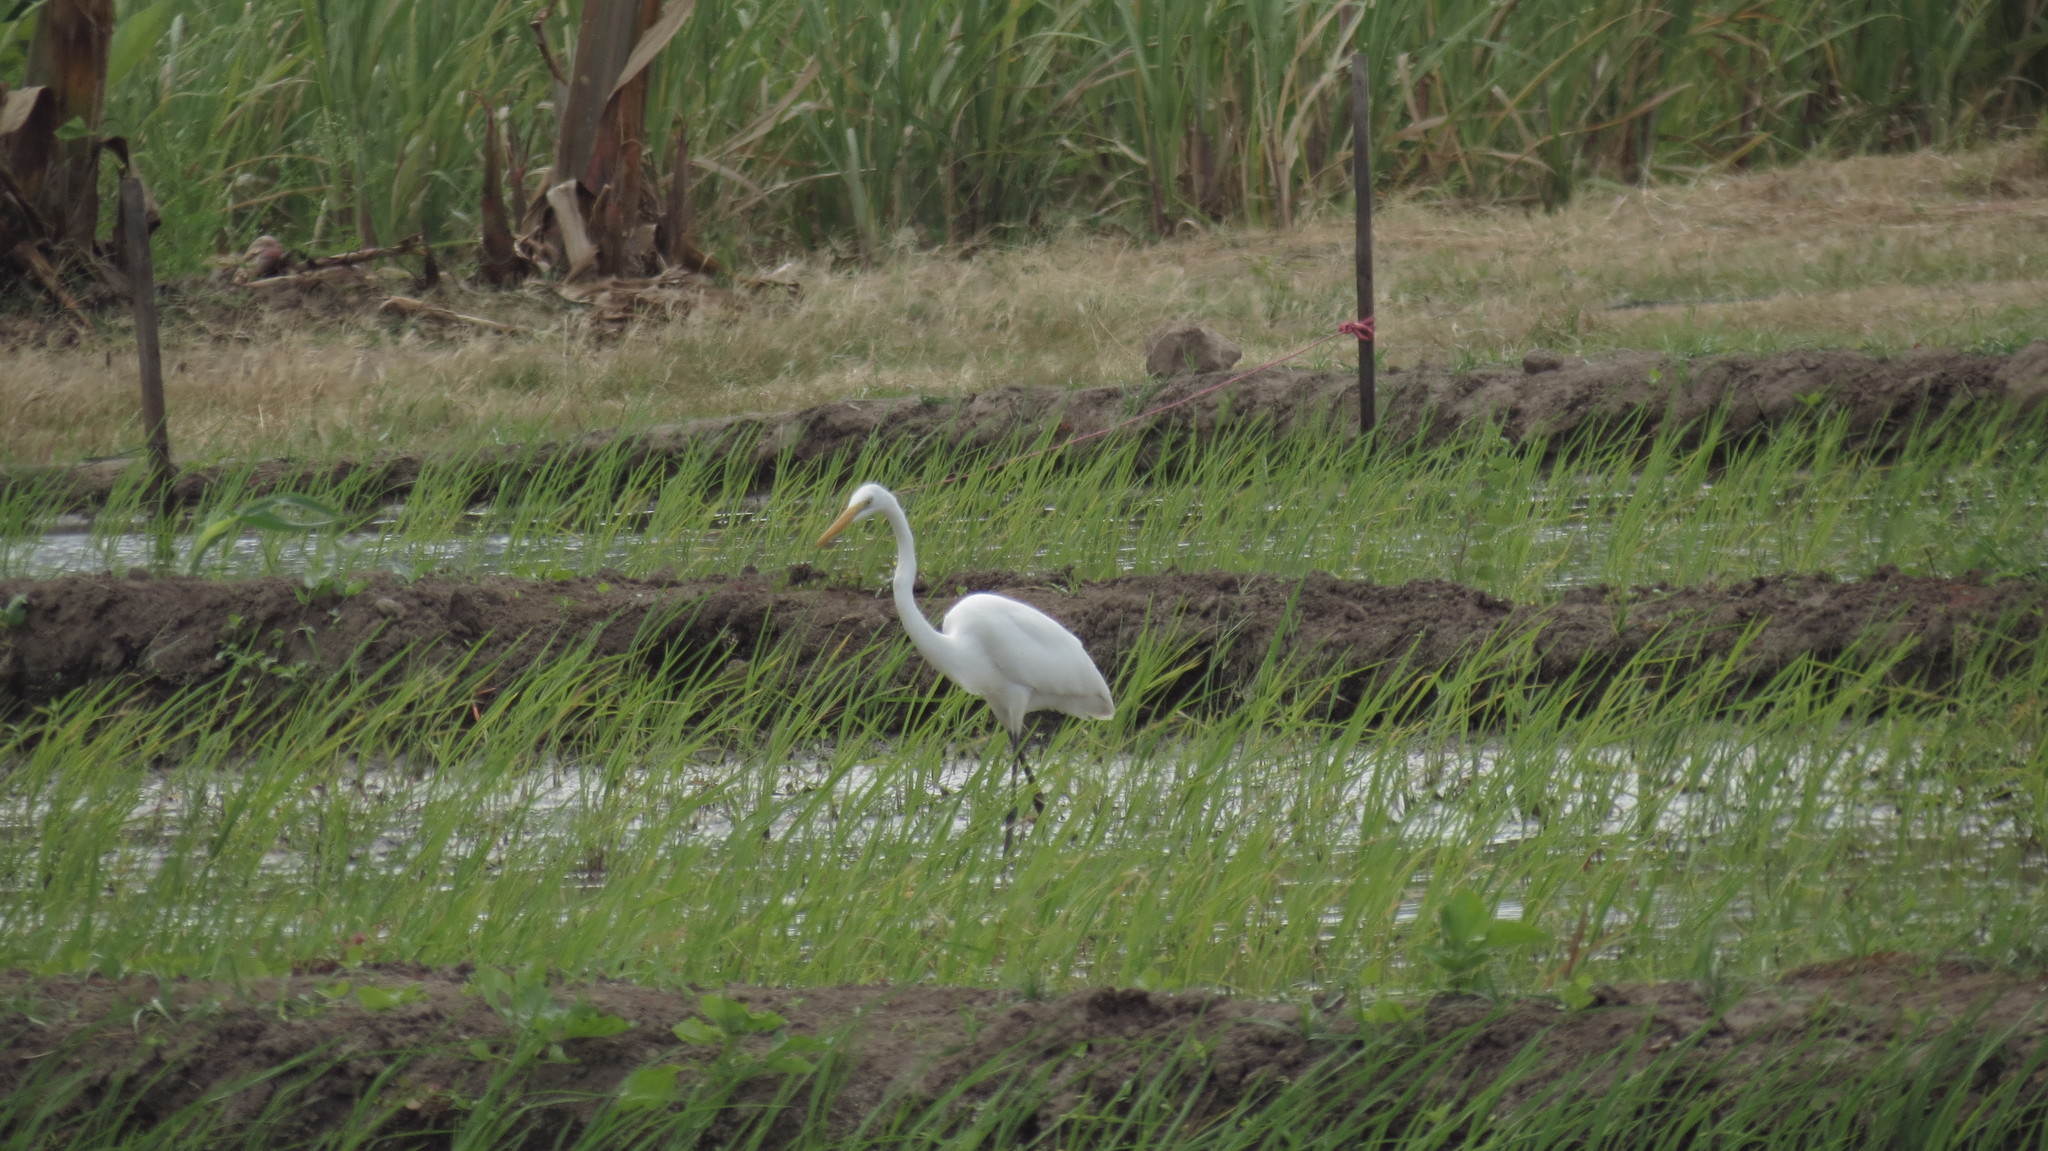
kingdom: Animalia
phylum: Chordata
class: Aves
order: Pelecaniformes
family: Ardeidae
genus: Ardea
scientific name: Ardea alba
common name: Great egret
